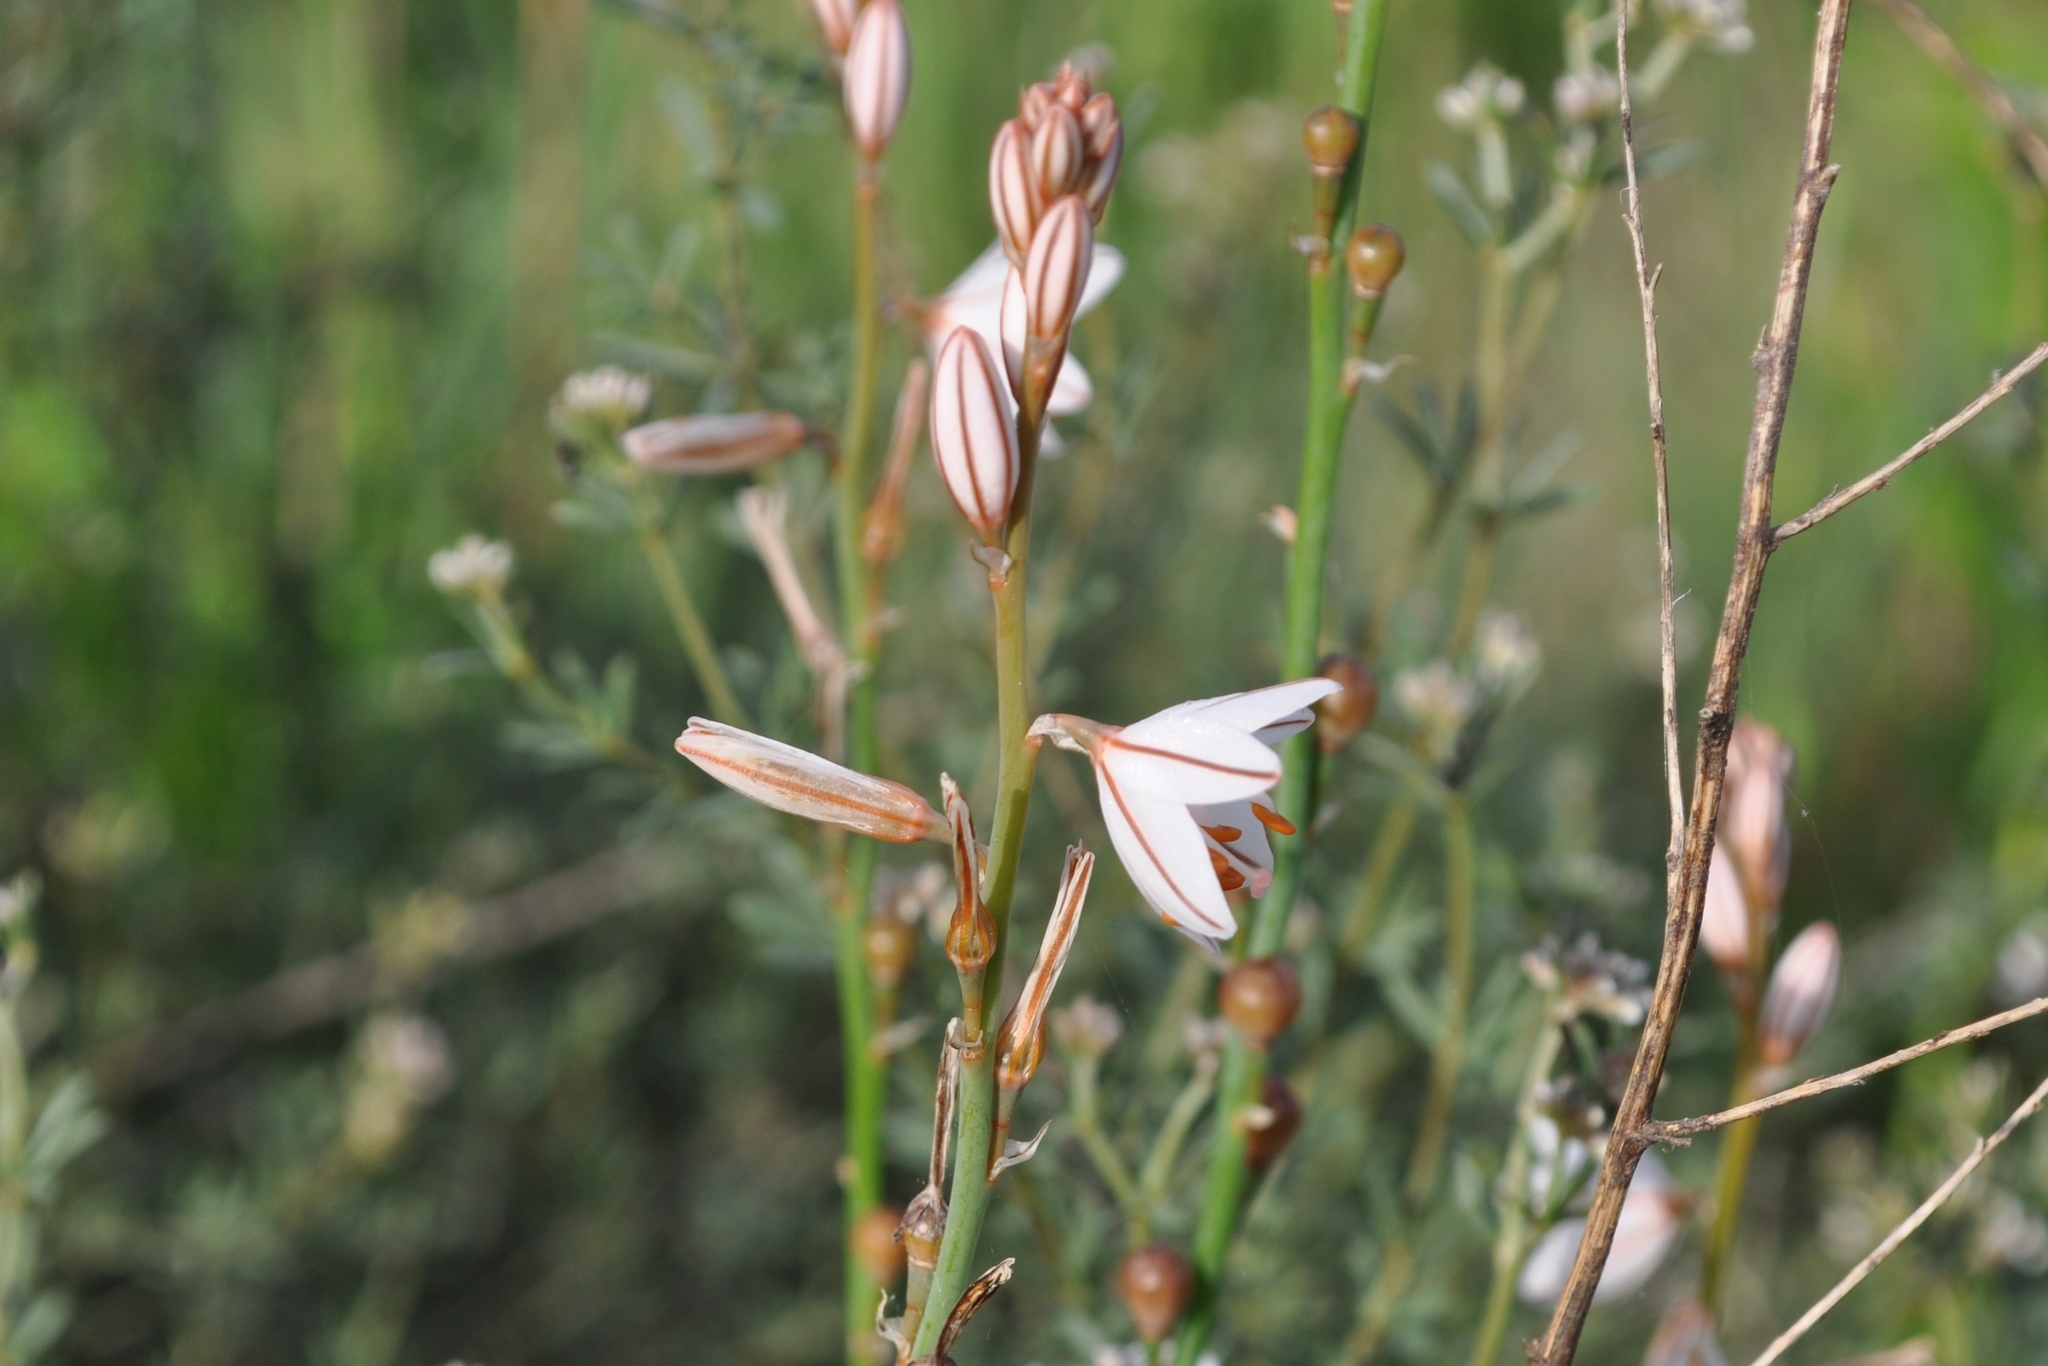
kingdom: Plantae
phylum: Tracheophyta
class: Liliopsida
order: Asparagales
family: Asphodelaceae
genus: Asphodelus
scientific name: Asphodelus fistulosus
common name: Onionweed
